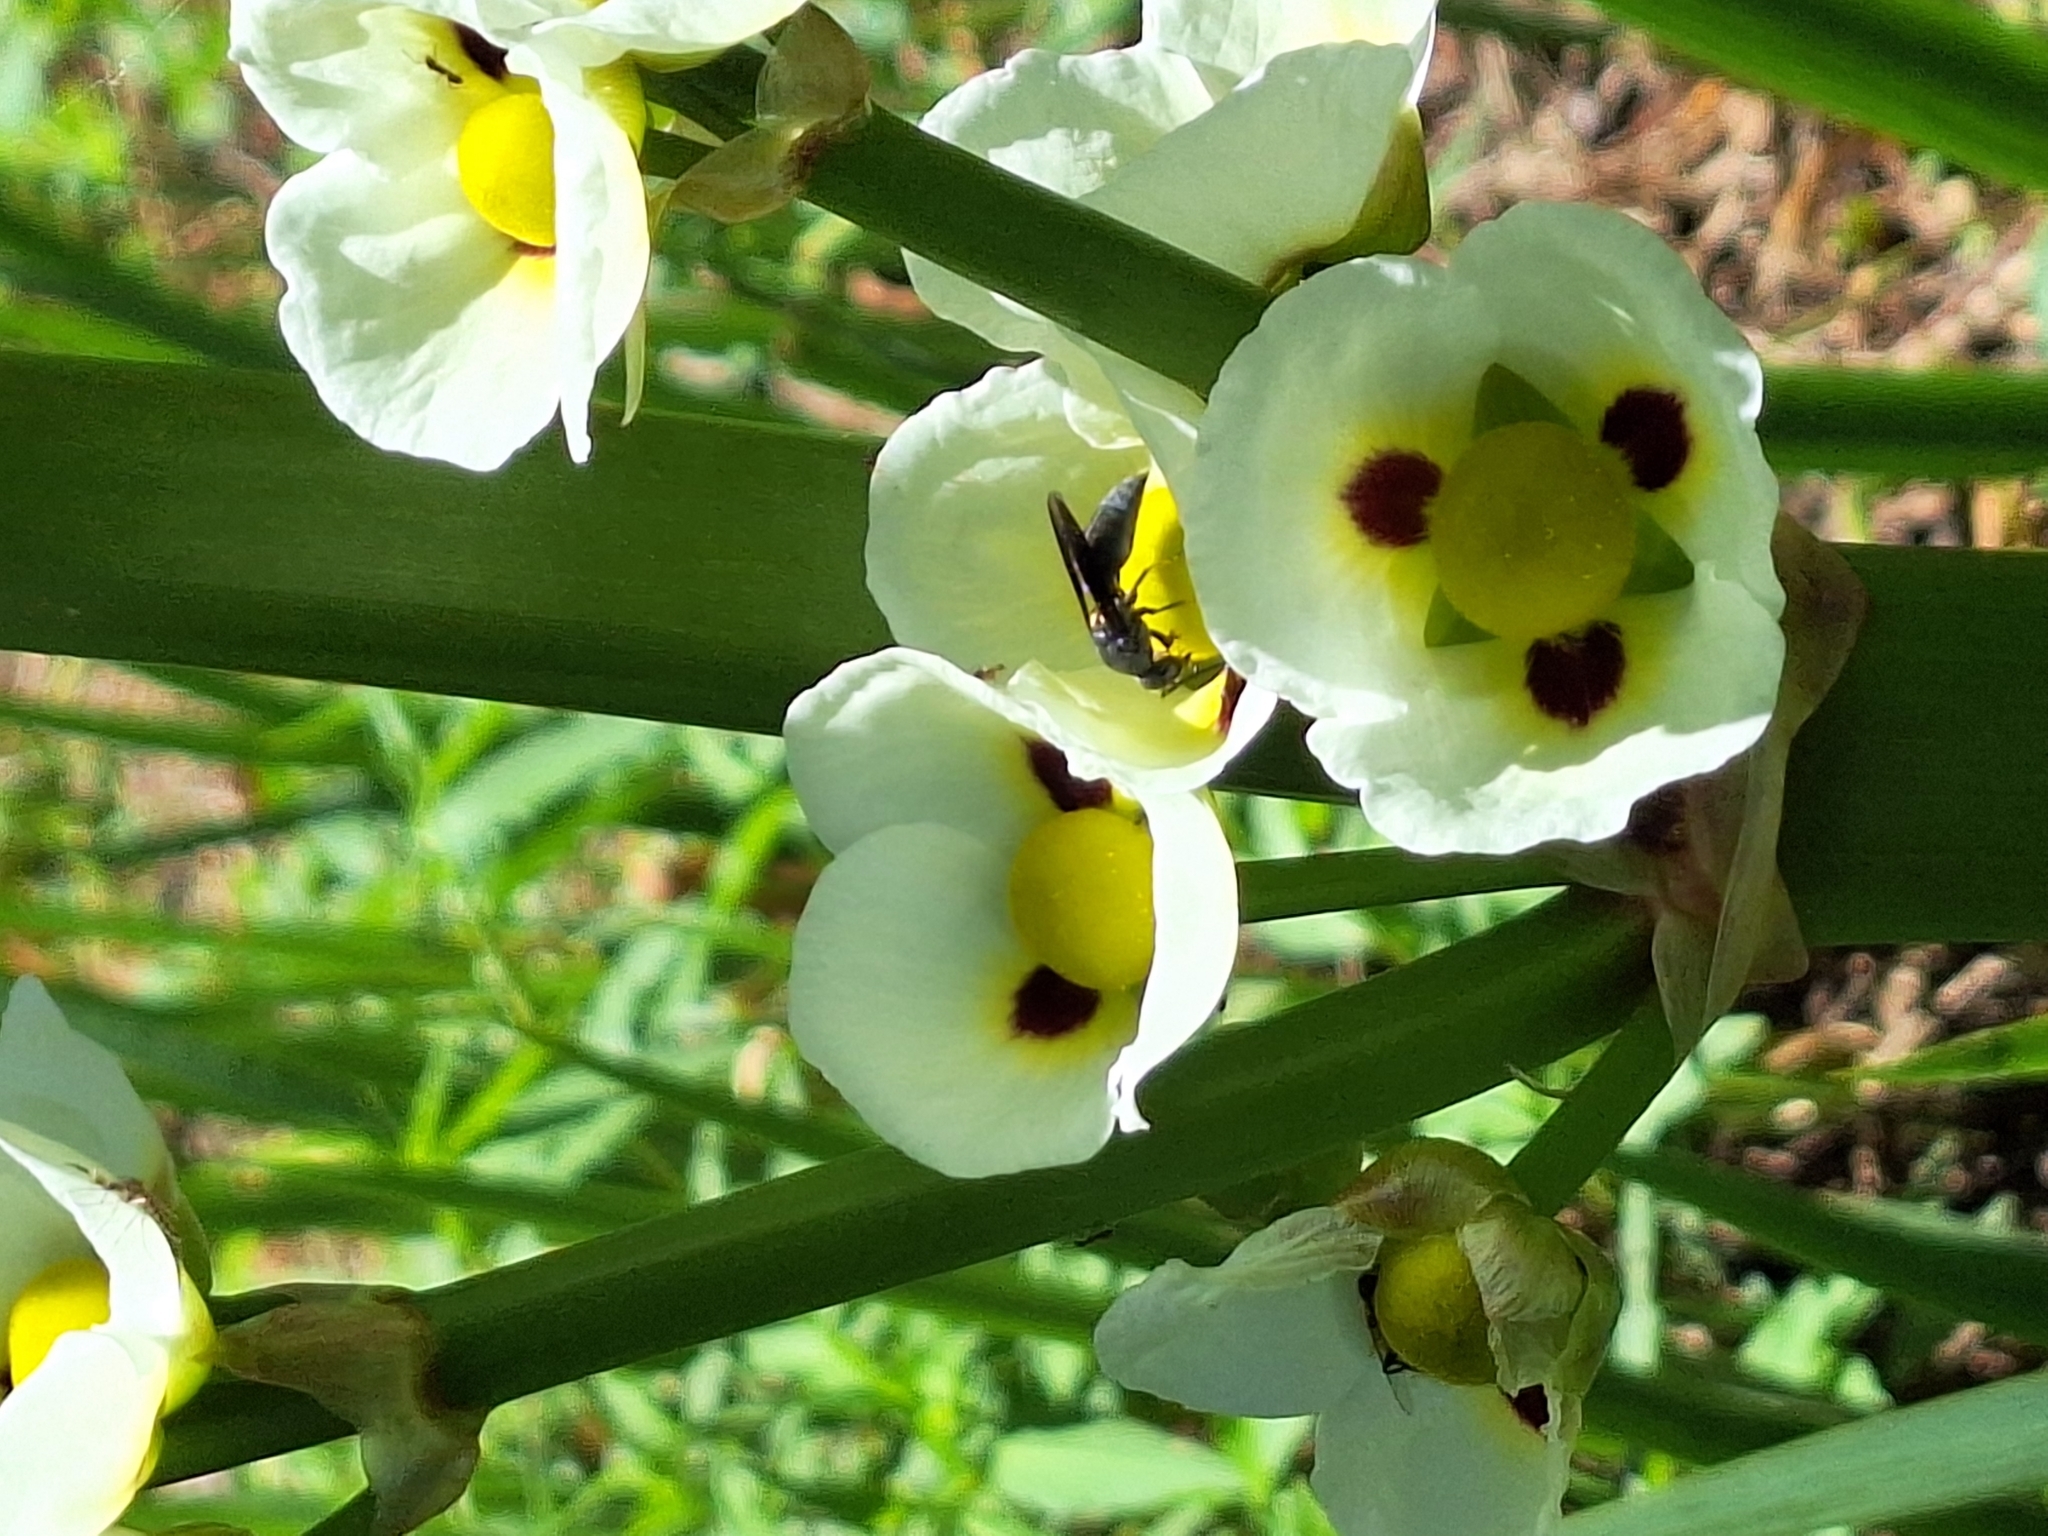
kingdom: Animalia
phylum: Arthropoda
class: Insecta
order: Hymenoptera
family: Eumenidae
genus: Monobia
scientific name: Monobia angulosa
